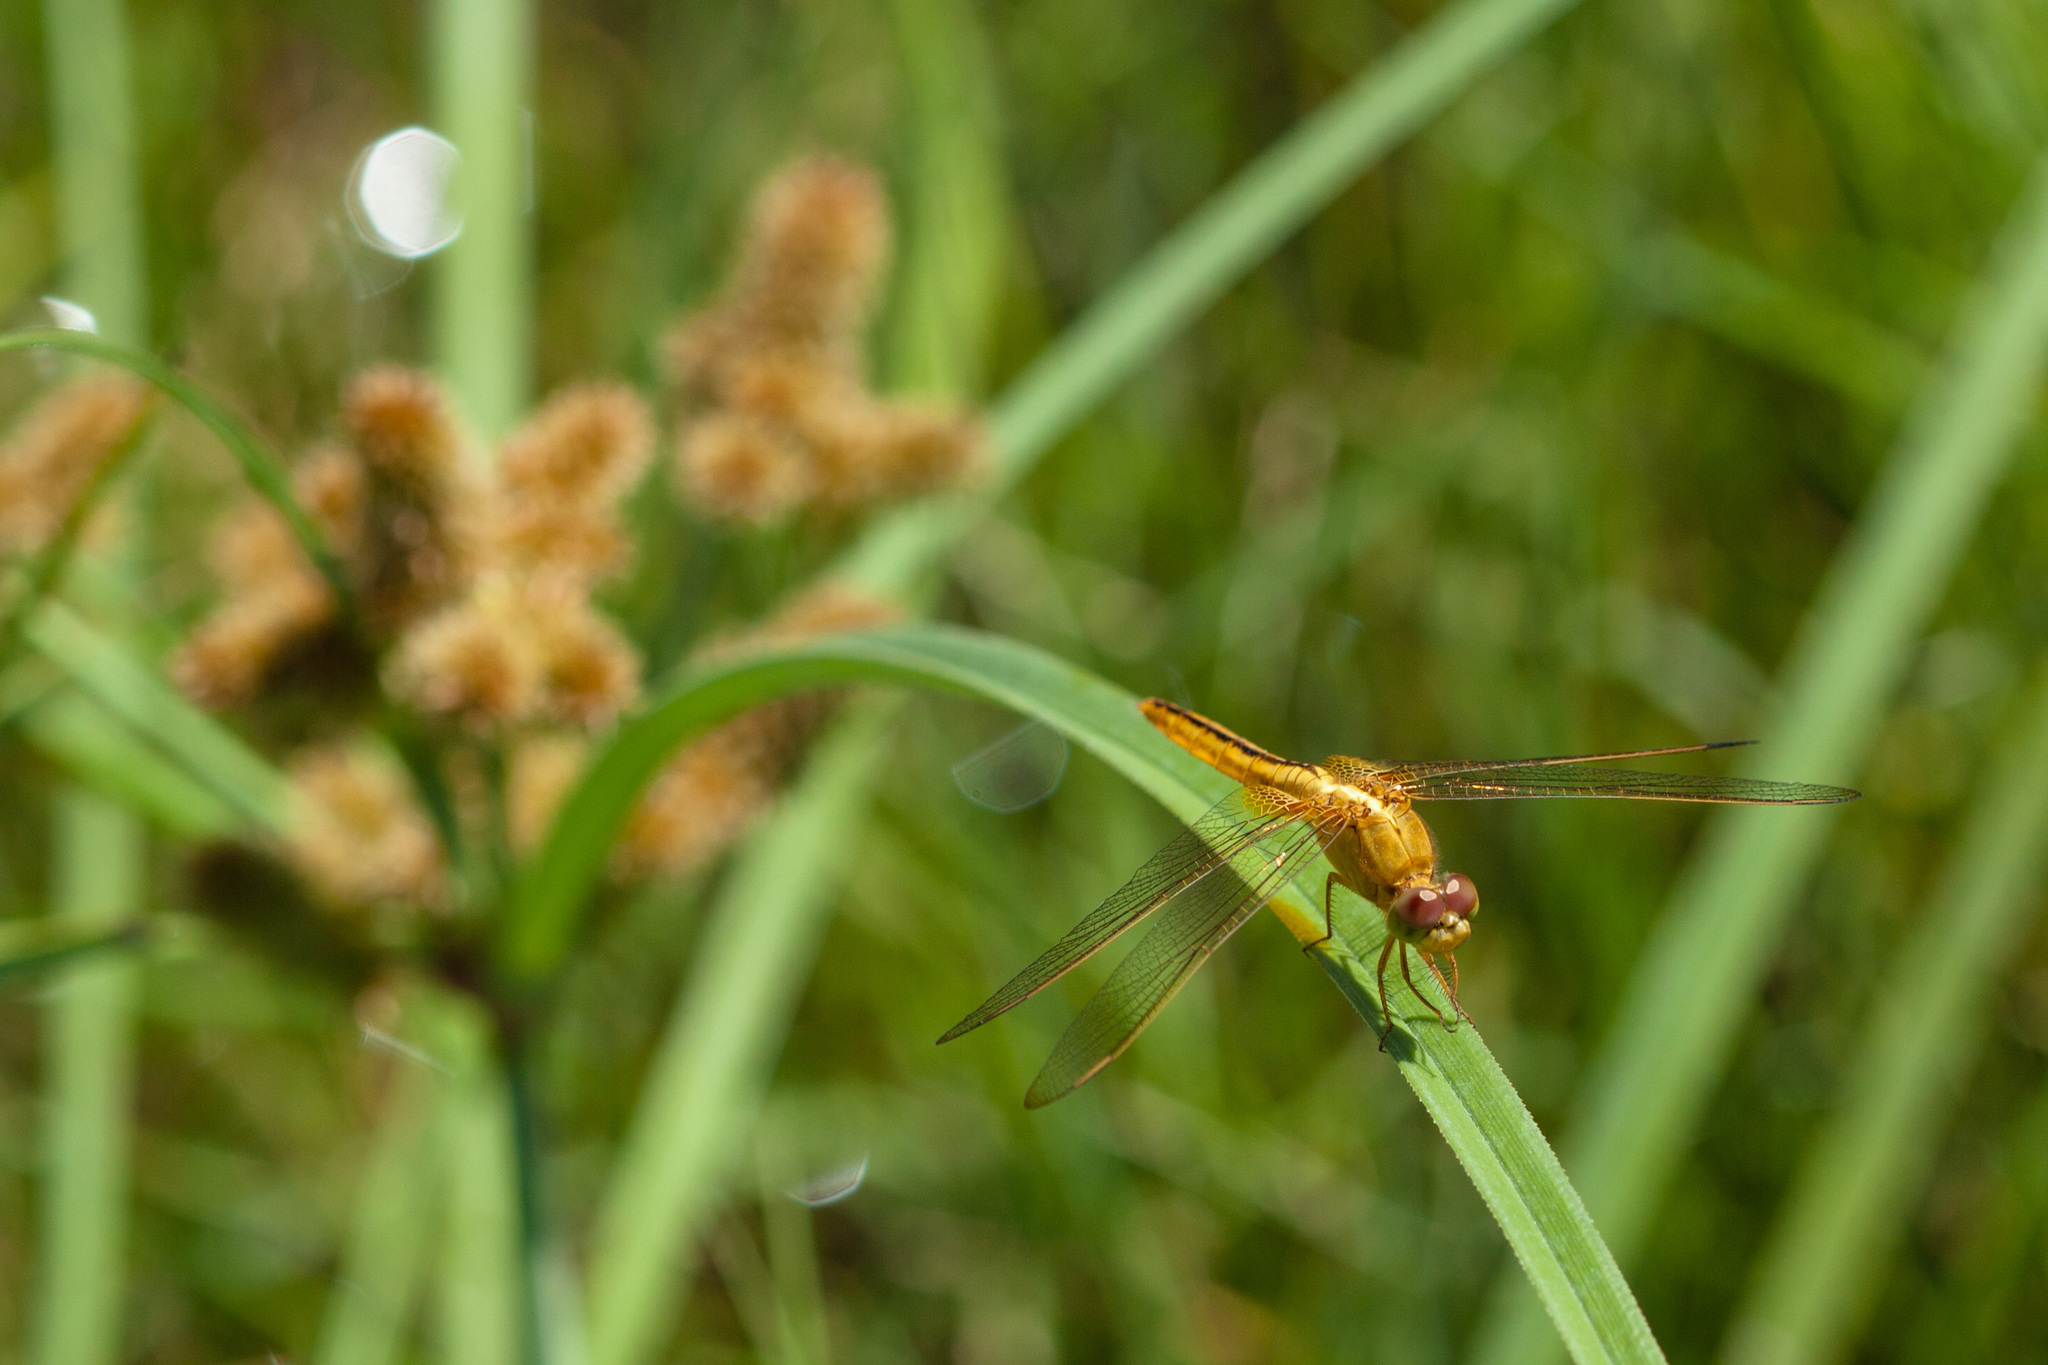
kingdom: Animalia
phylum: Arthropoda
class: Insecta
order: Odonata
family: Libellulidae
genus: Crocothemis
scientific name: Crocothemis servilia
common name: Scarlet skimmer
